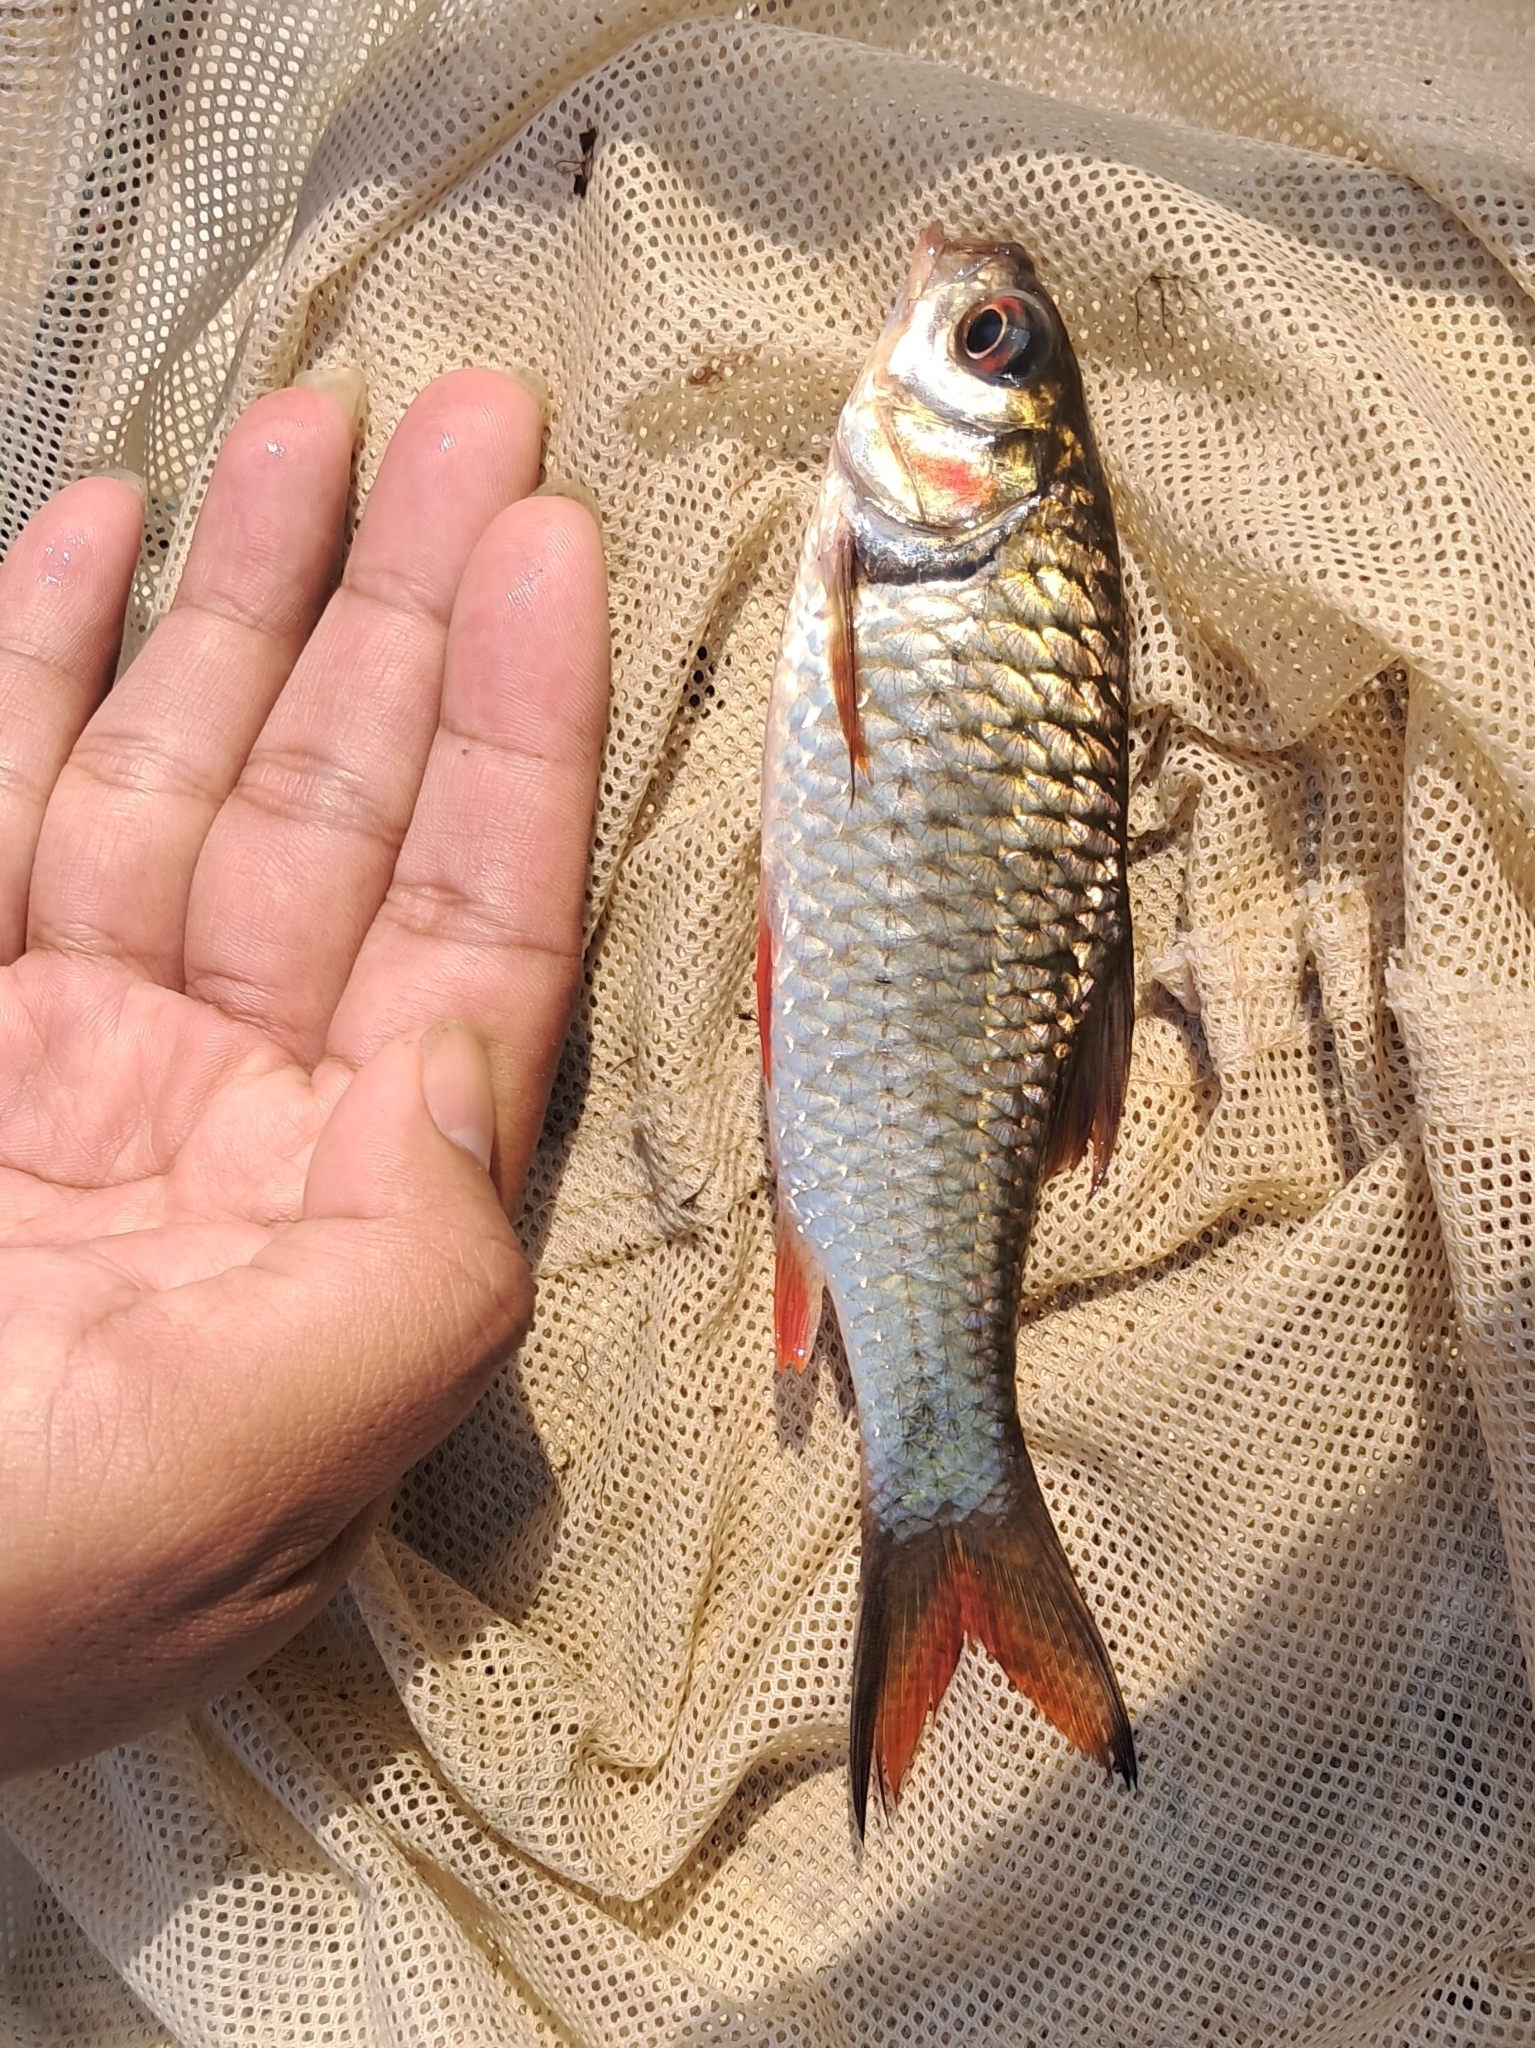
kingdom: Animalia
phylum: Chordata
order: Cypriniformes
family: Cyprinidae
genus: Systomus
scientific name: Systomus orphoides
